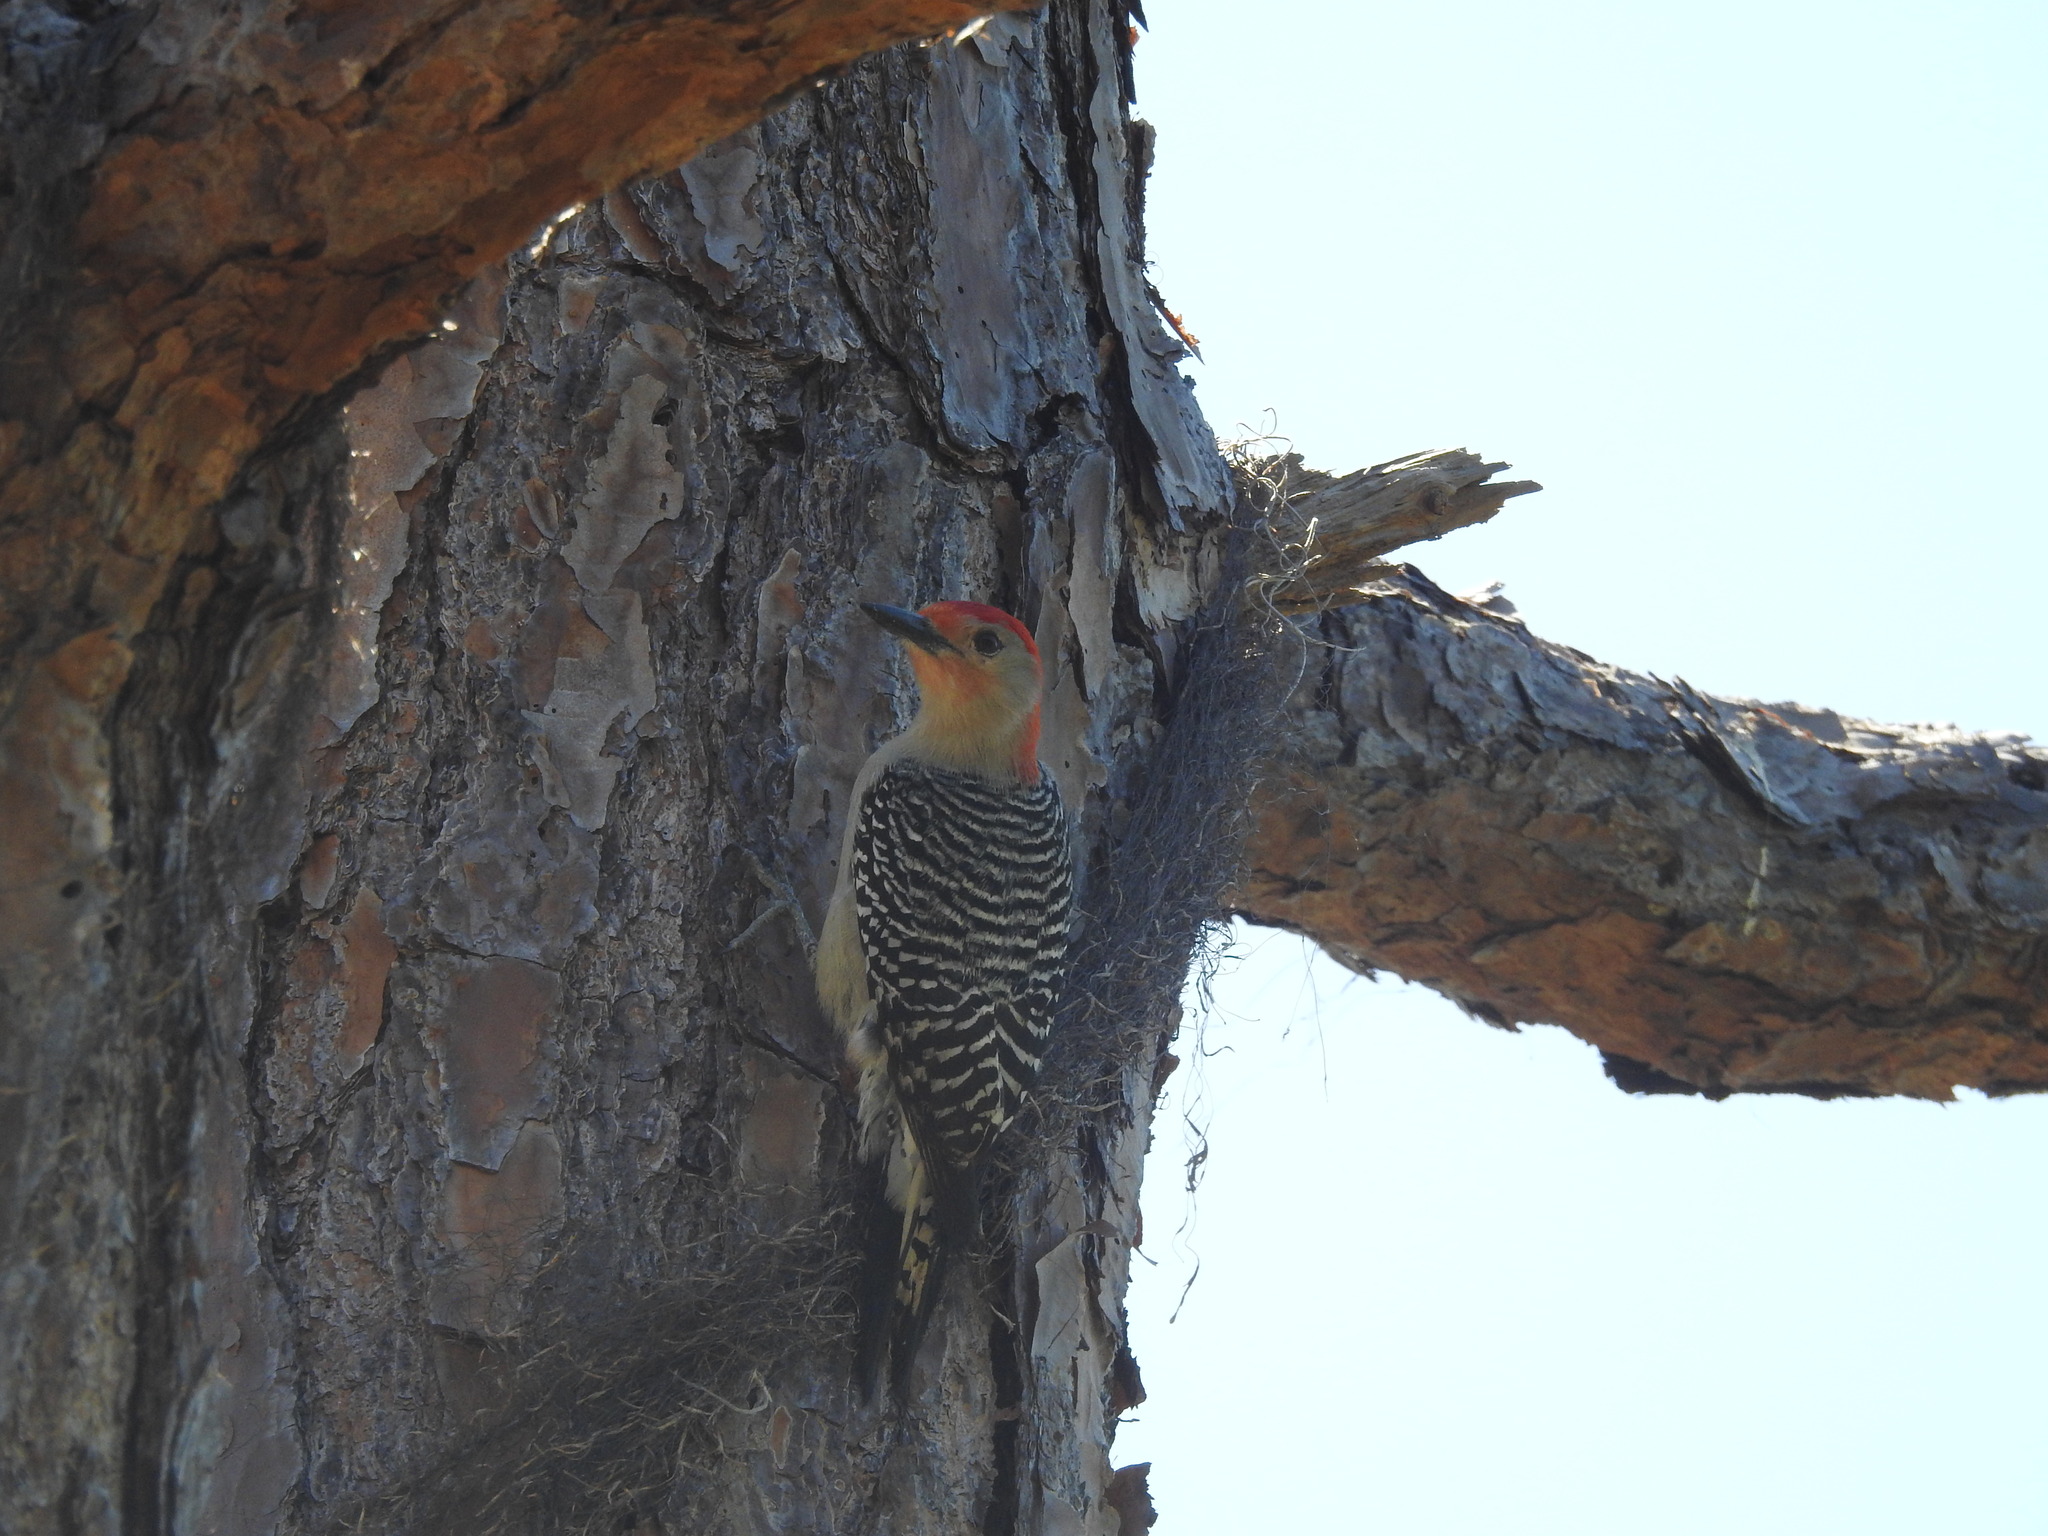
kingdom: Animalia
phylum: Chordata
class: Aves
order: Piciformes
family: Picidae
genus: Melanerpes
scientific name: Melanerpes carolinus
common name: Red-bellied woodpecker
